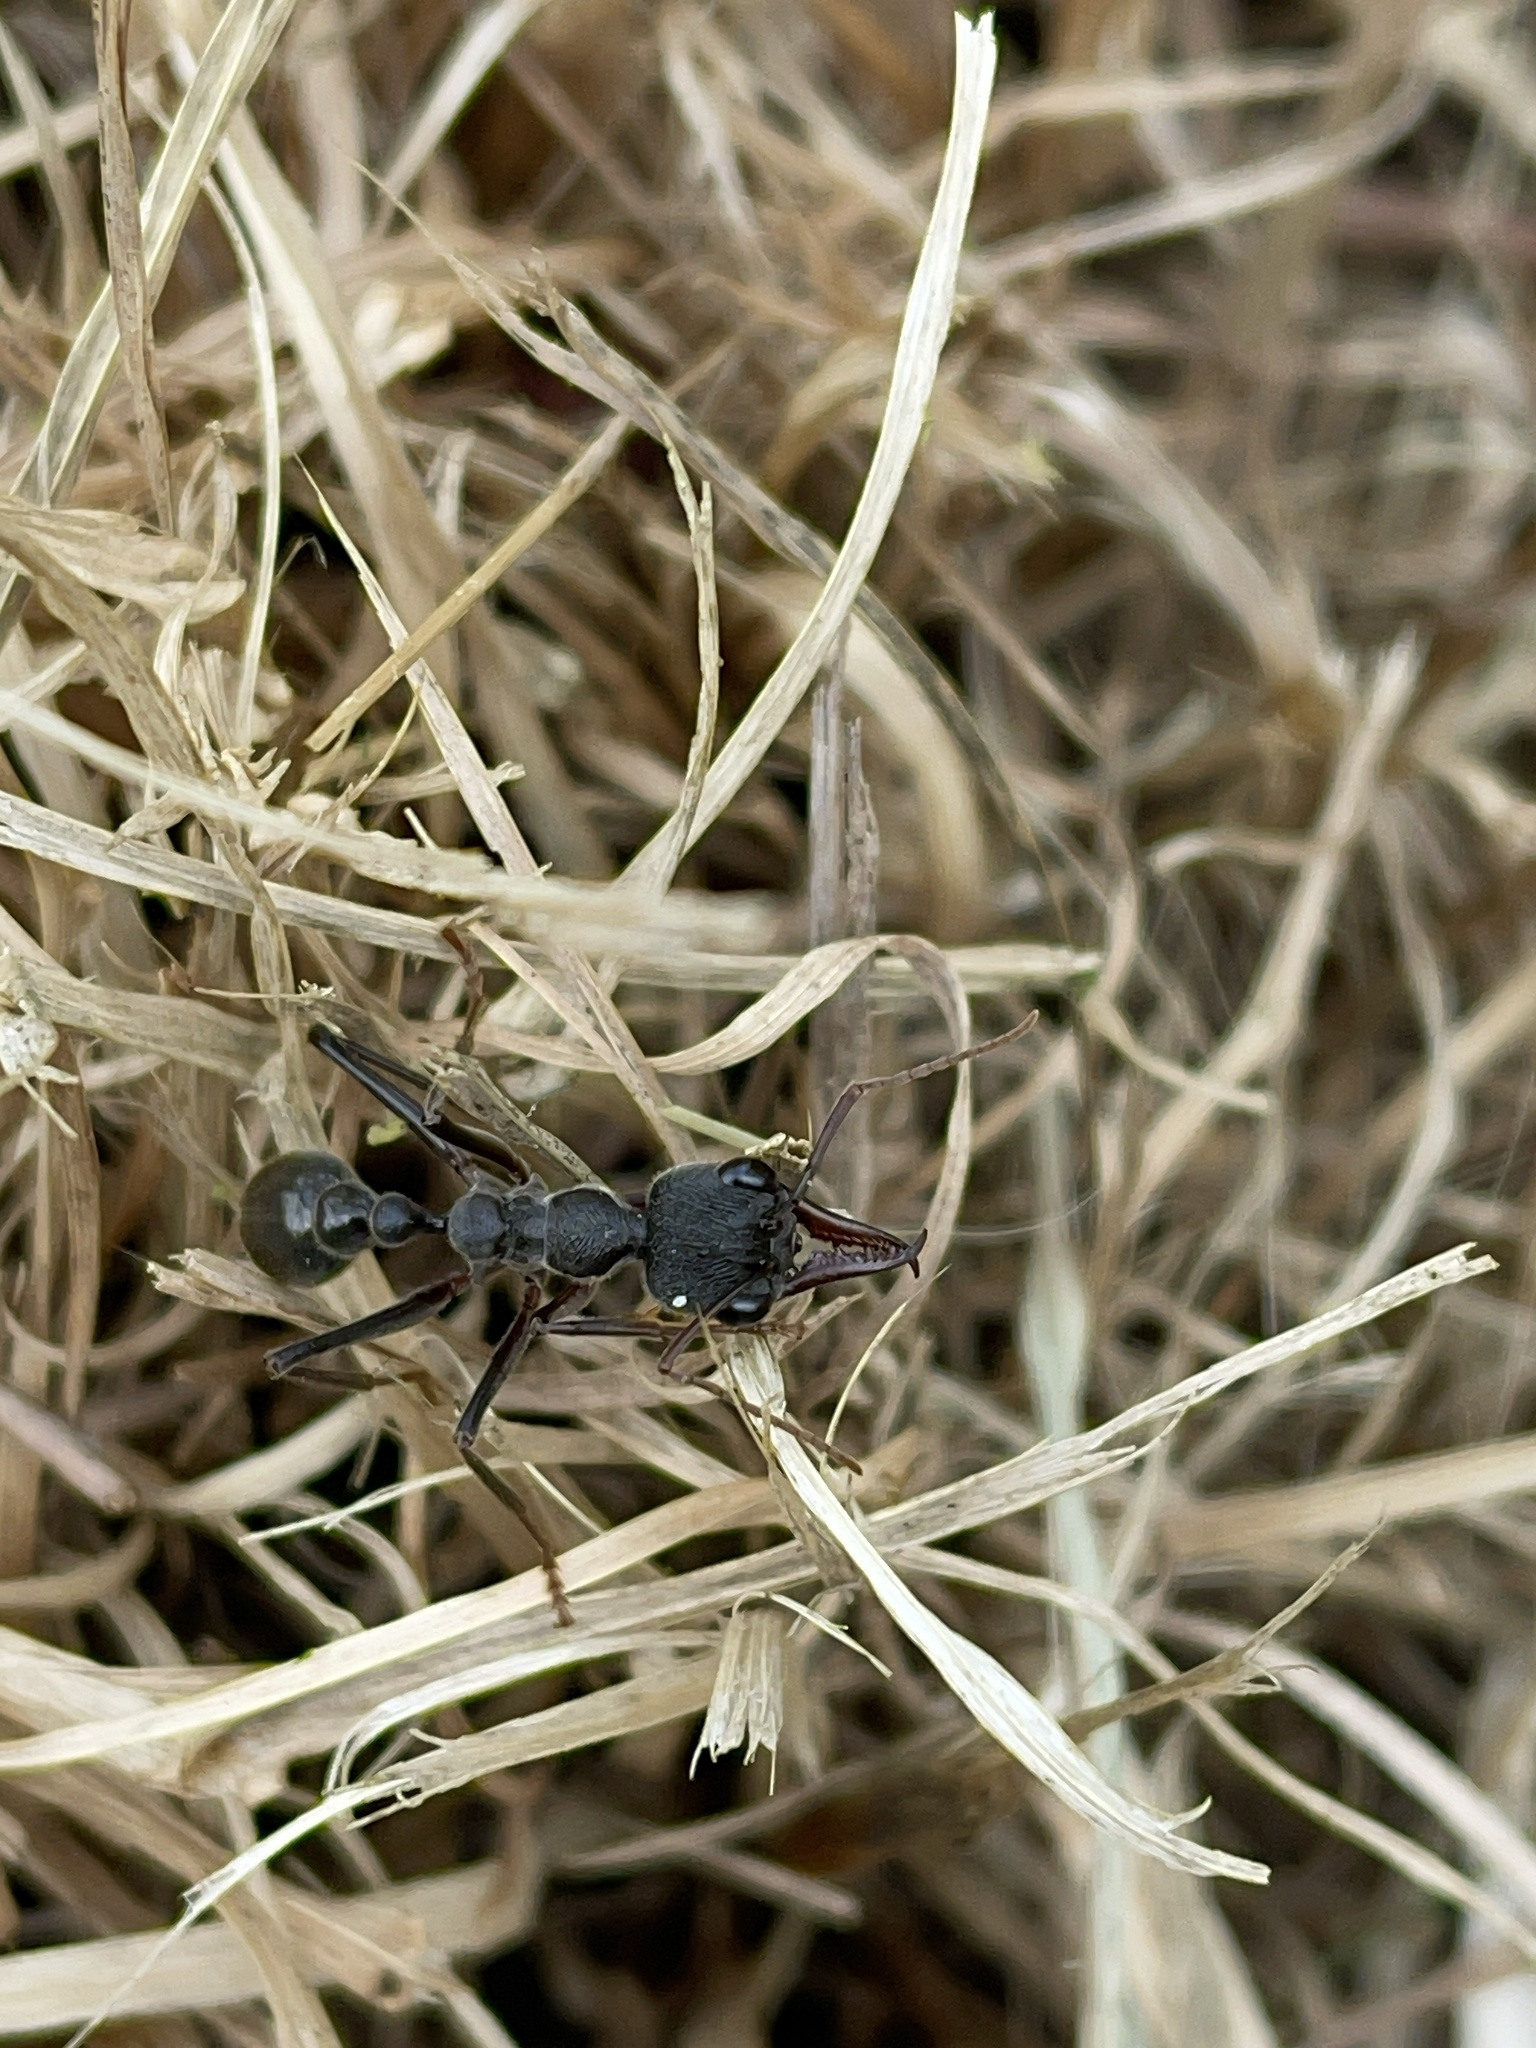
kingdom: Animalia
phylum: Arthropoda
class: Insecta
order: Hymenoptera
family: Formicidae
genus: Myrmecia
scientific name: Myrmecia pyriformis
